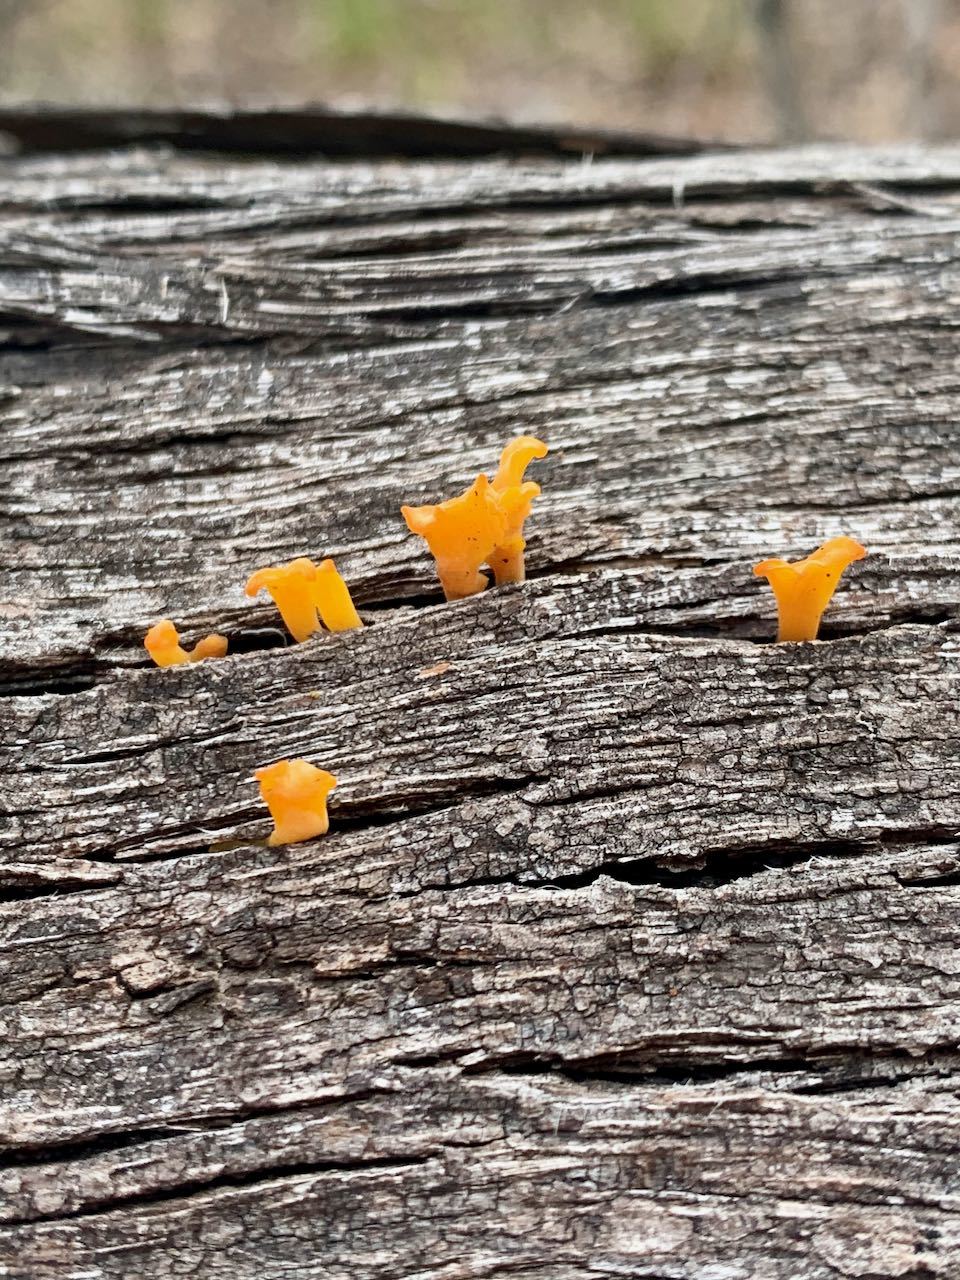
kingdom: Fungi
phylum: Basidiomycota
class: Dacrymycetes
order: Dacrymycetales
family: Dacrymycetaceae
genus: Dacrymyces
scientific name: Dacrymyces spathularius
